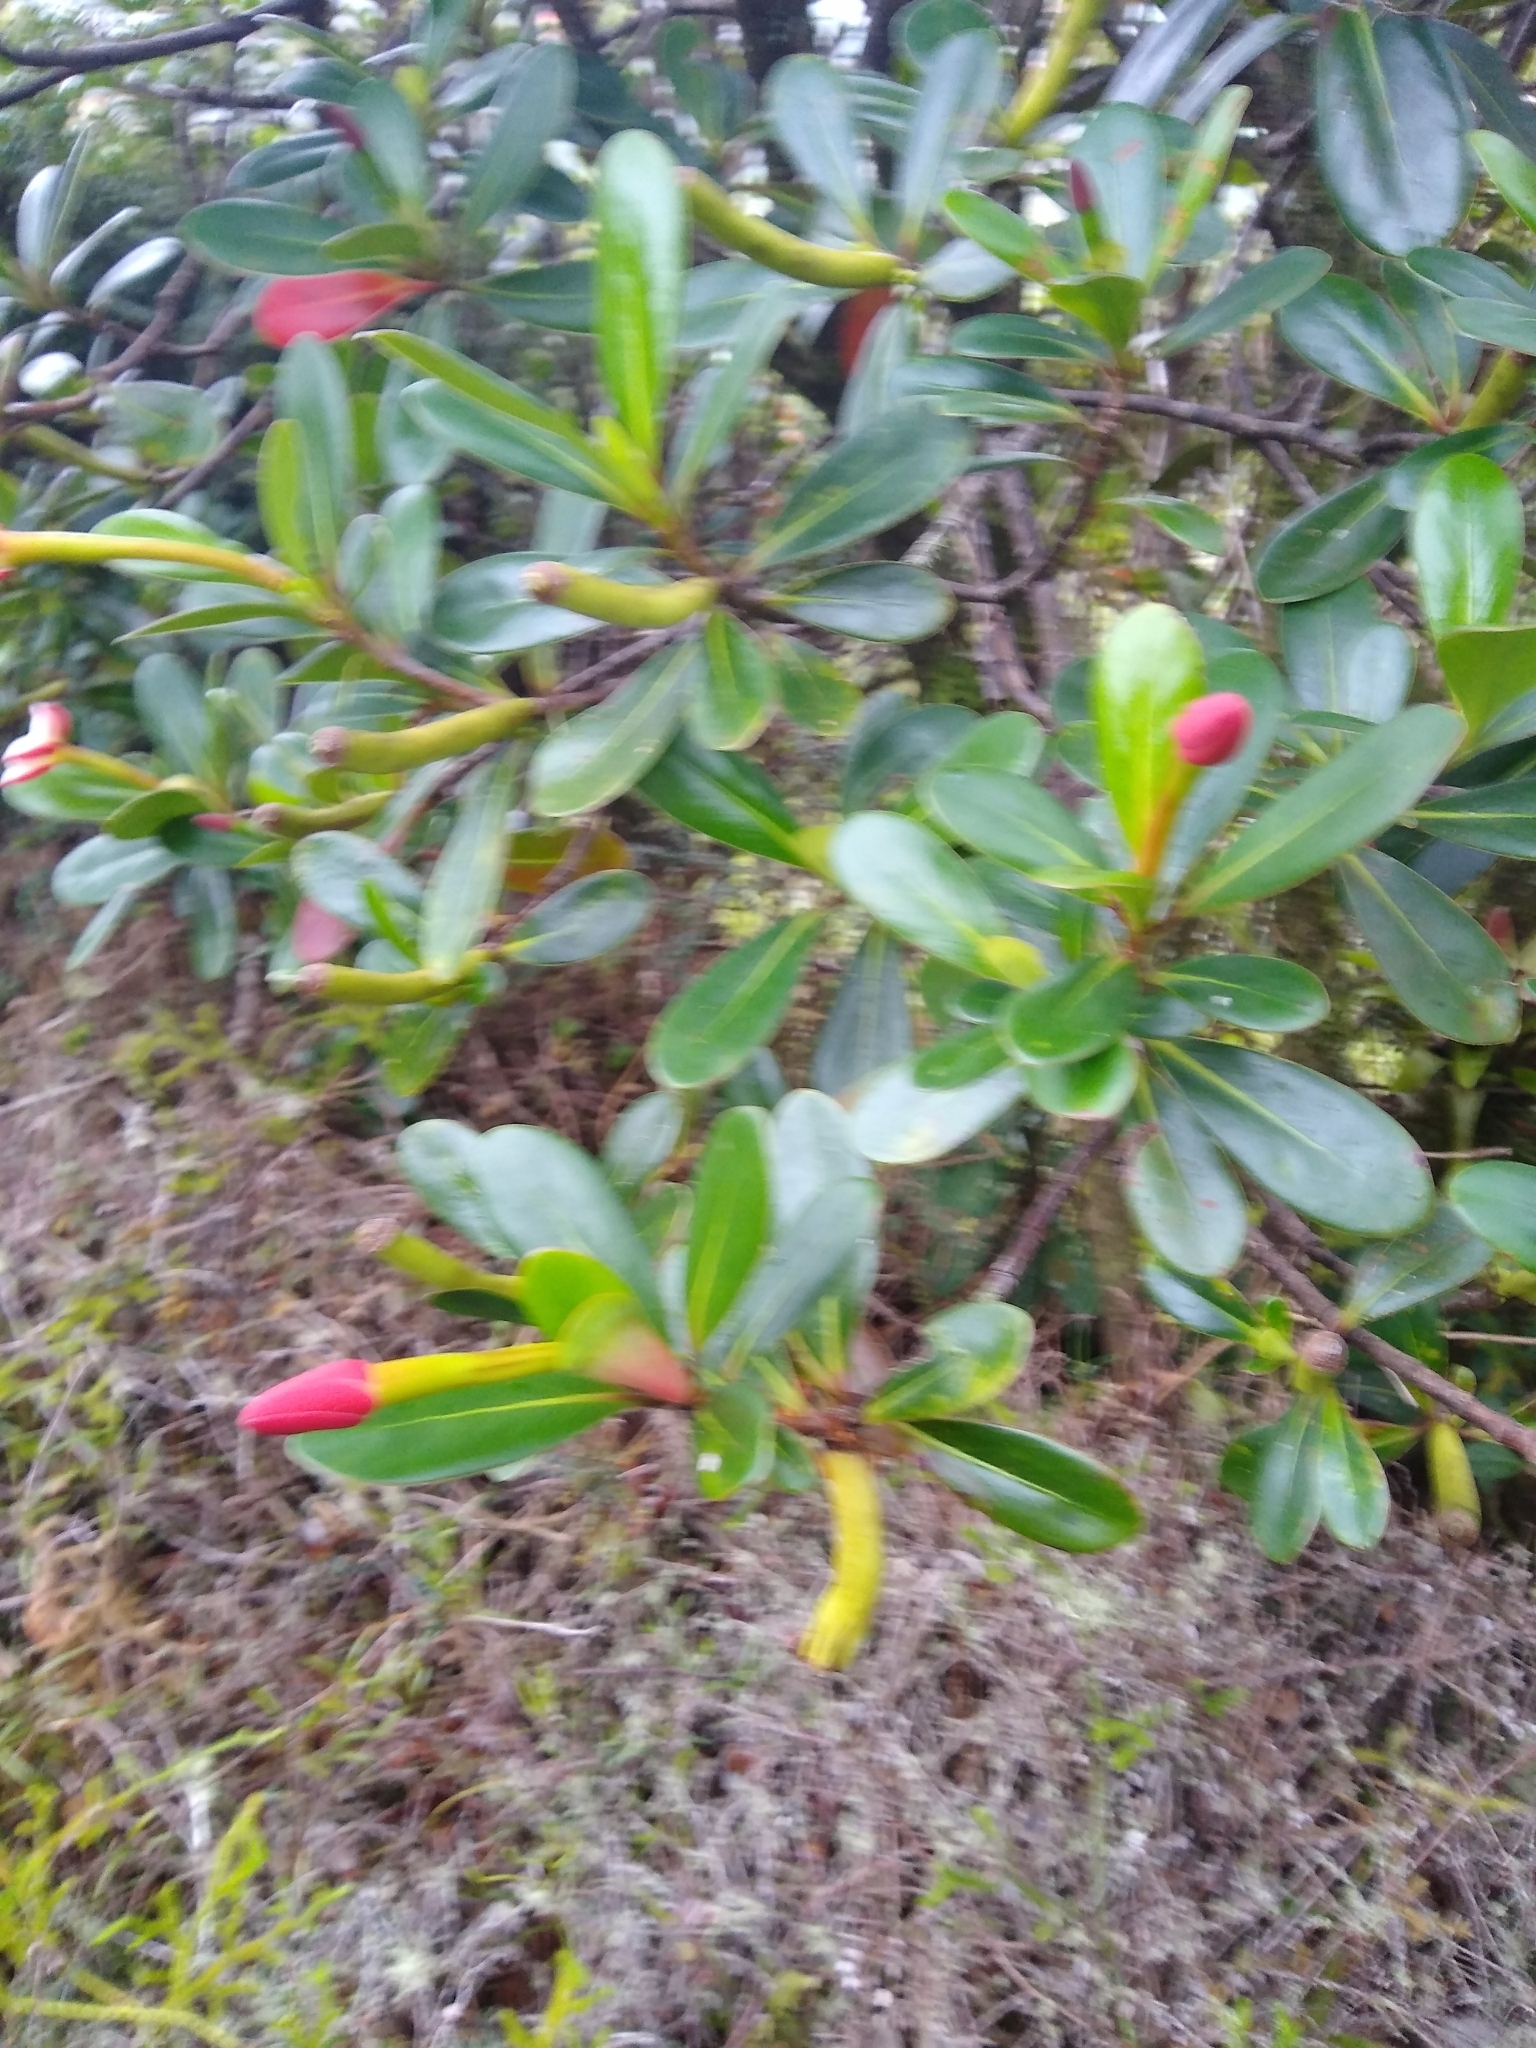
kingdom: Plantae
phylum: Tracheophyta
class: Magnoliopsida
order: Gentianales
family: Rubiaceae
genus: Cosmibuena
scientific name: Cosmibuena valerii
